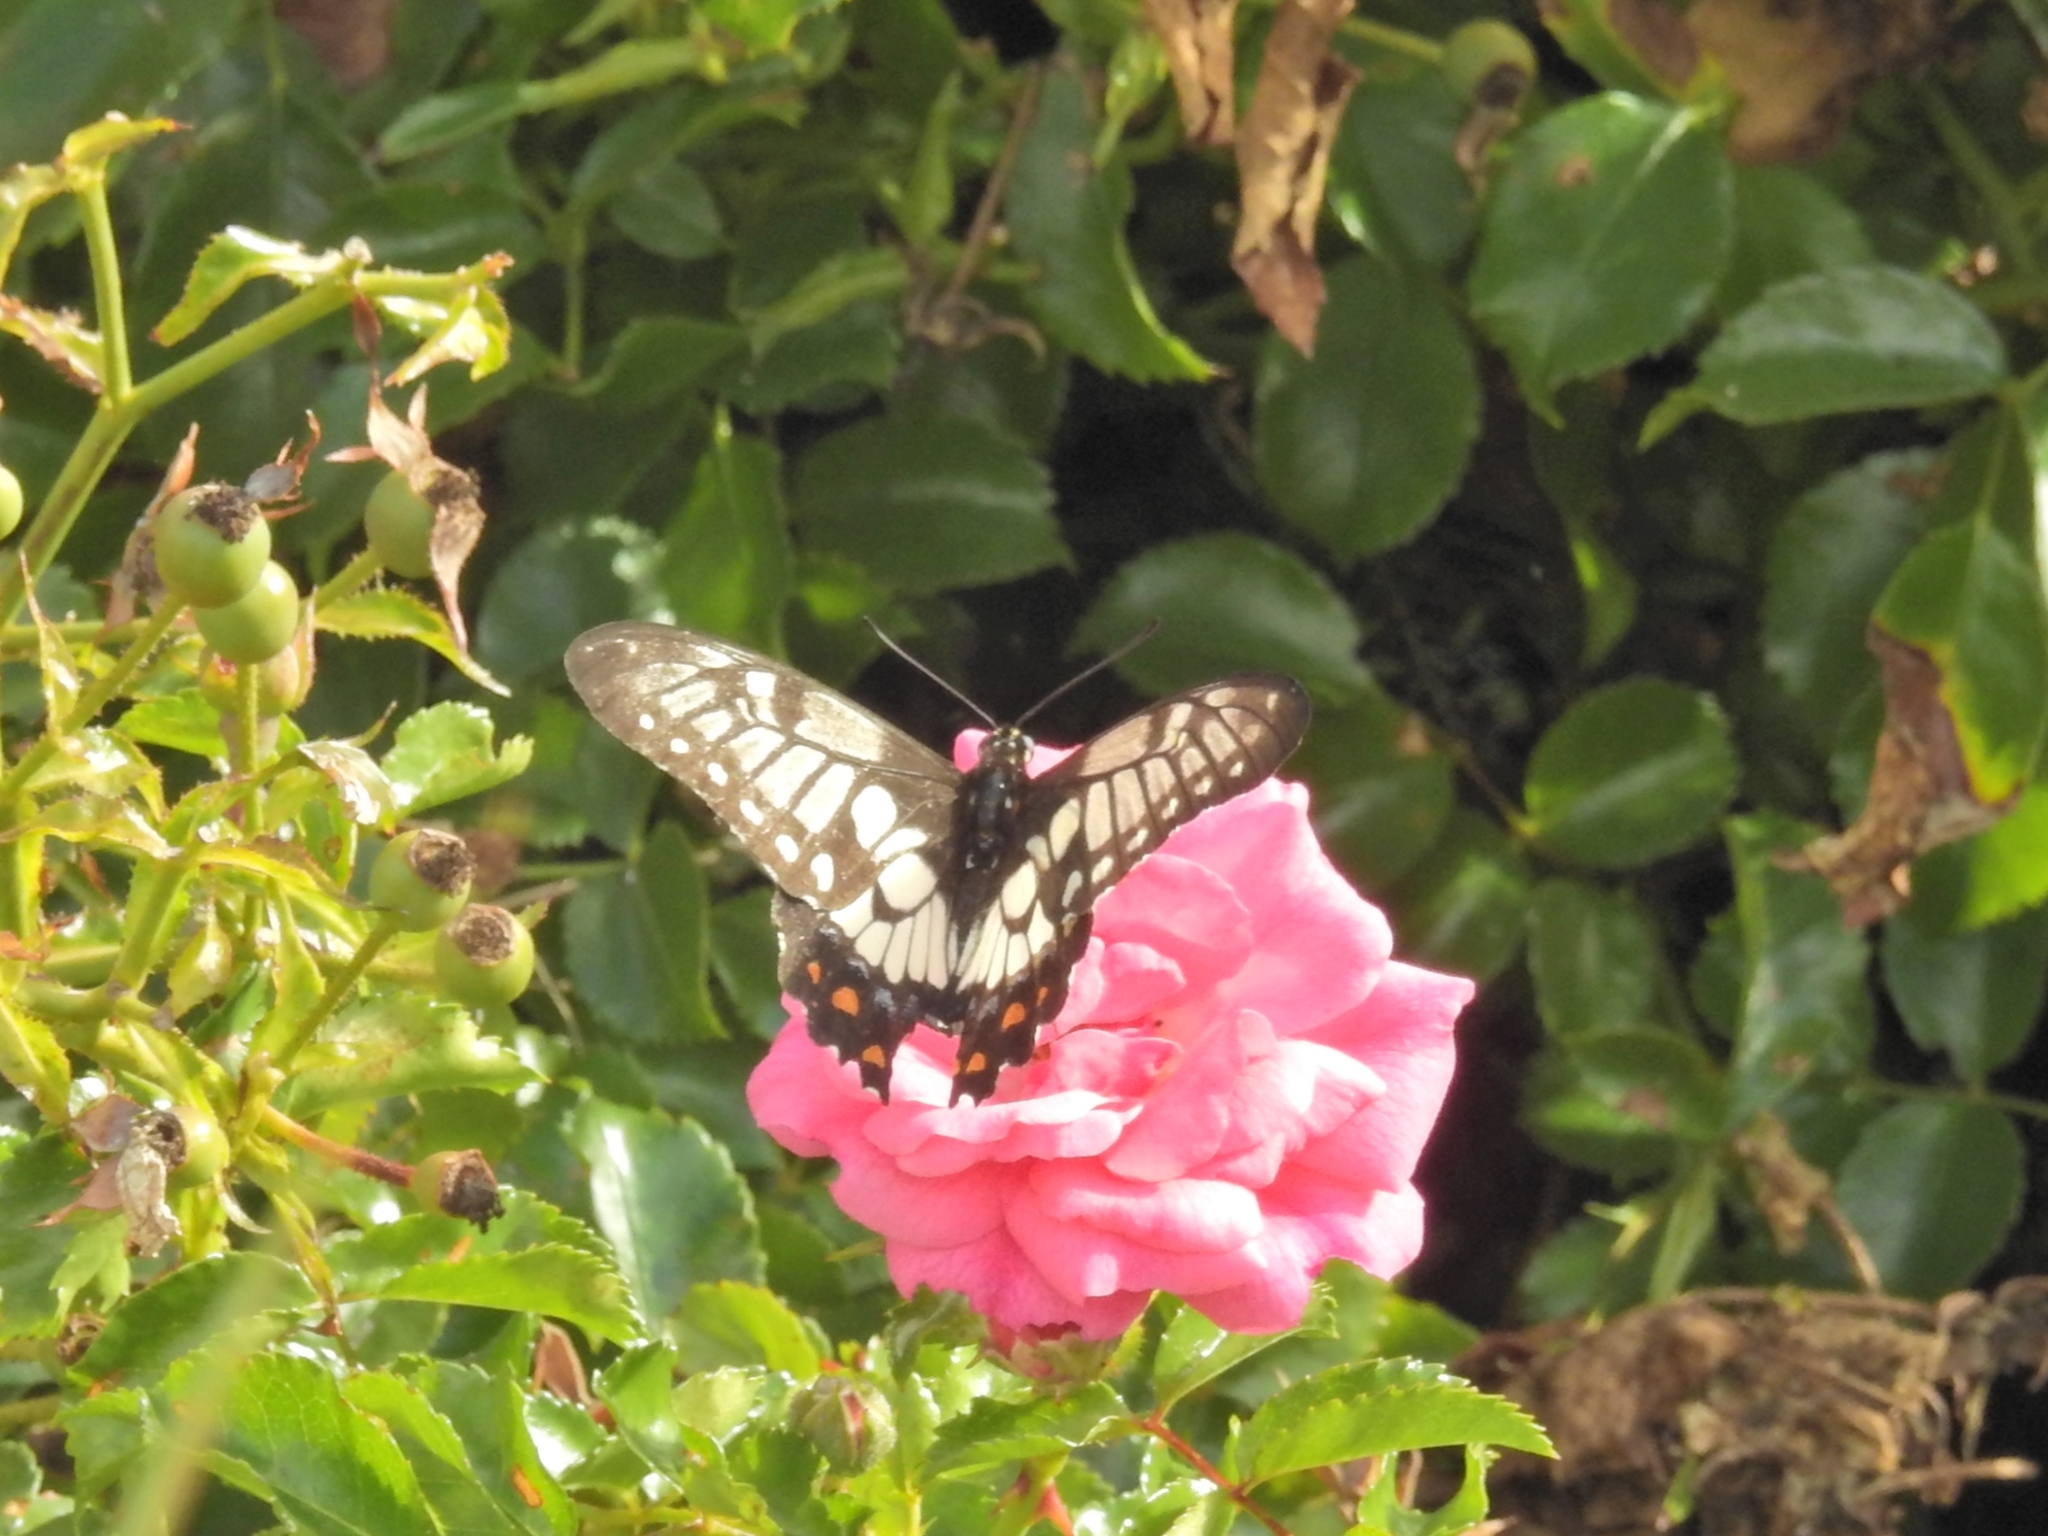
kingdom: Animalia
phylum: Arthropoda
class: Insecta
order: Lepidoptera
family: Papilionidae
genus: Papilio
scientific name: Papilio anactus
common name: Dingy swallowtail
